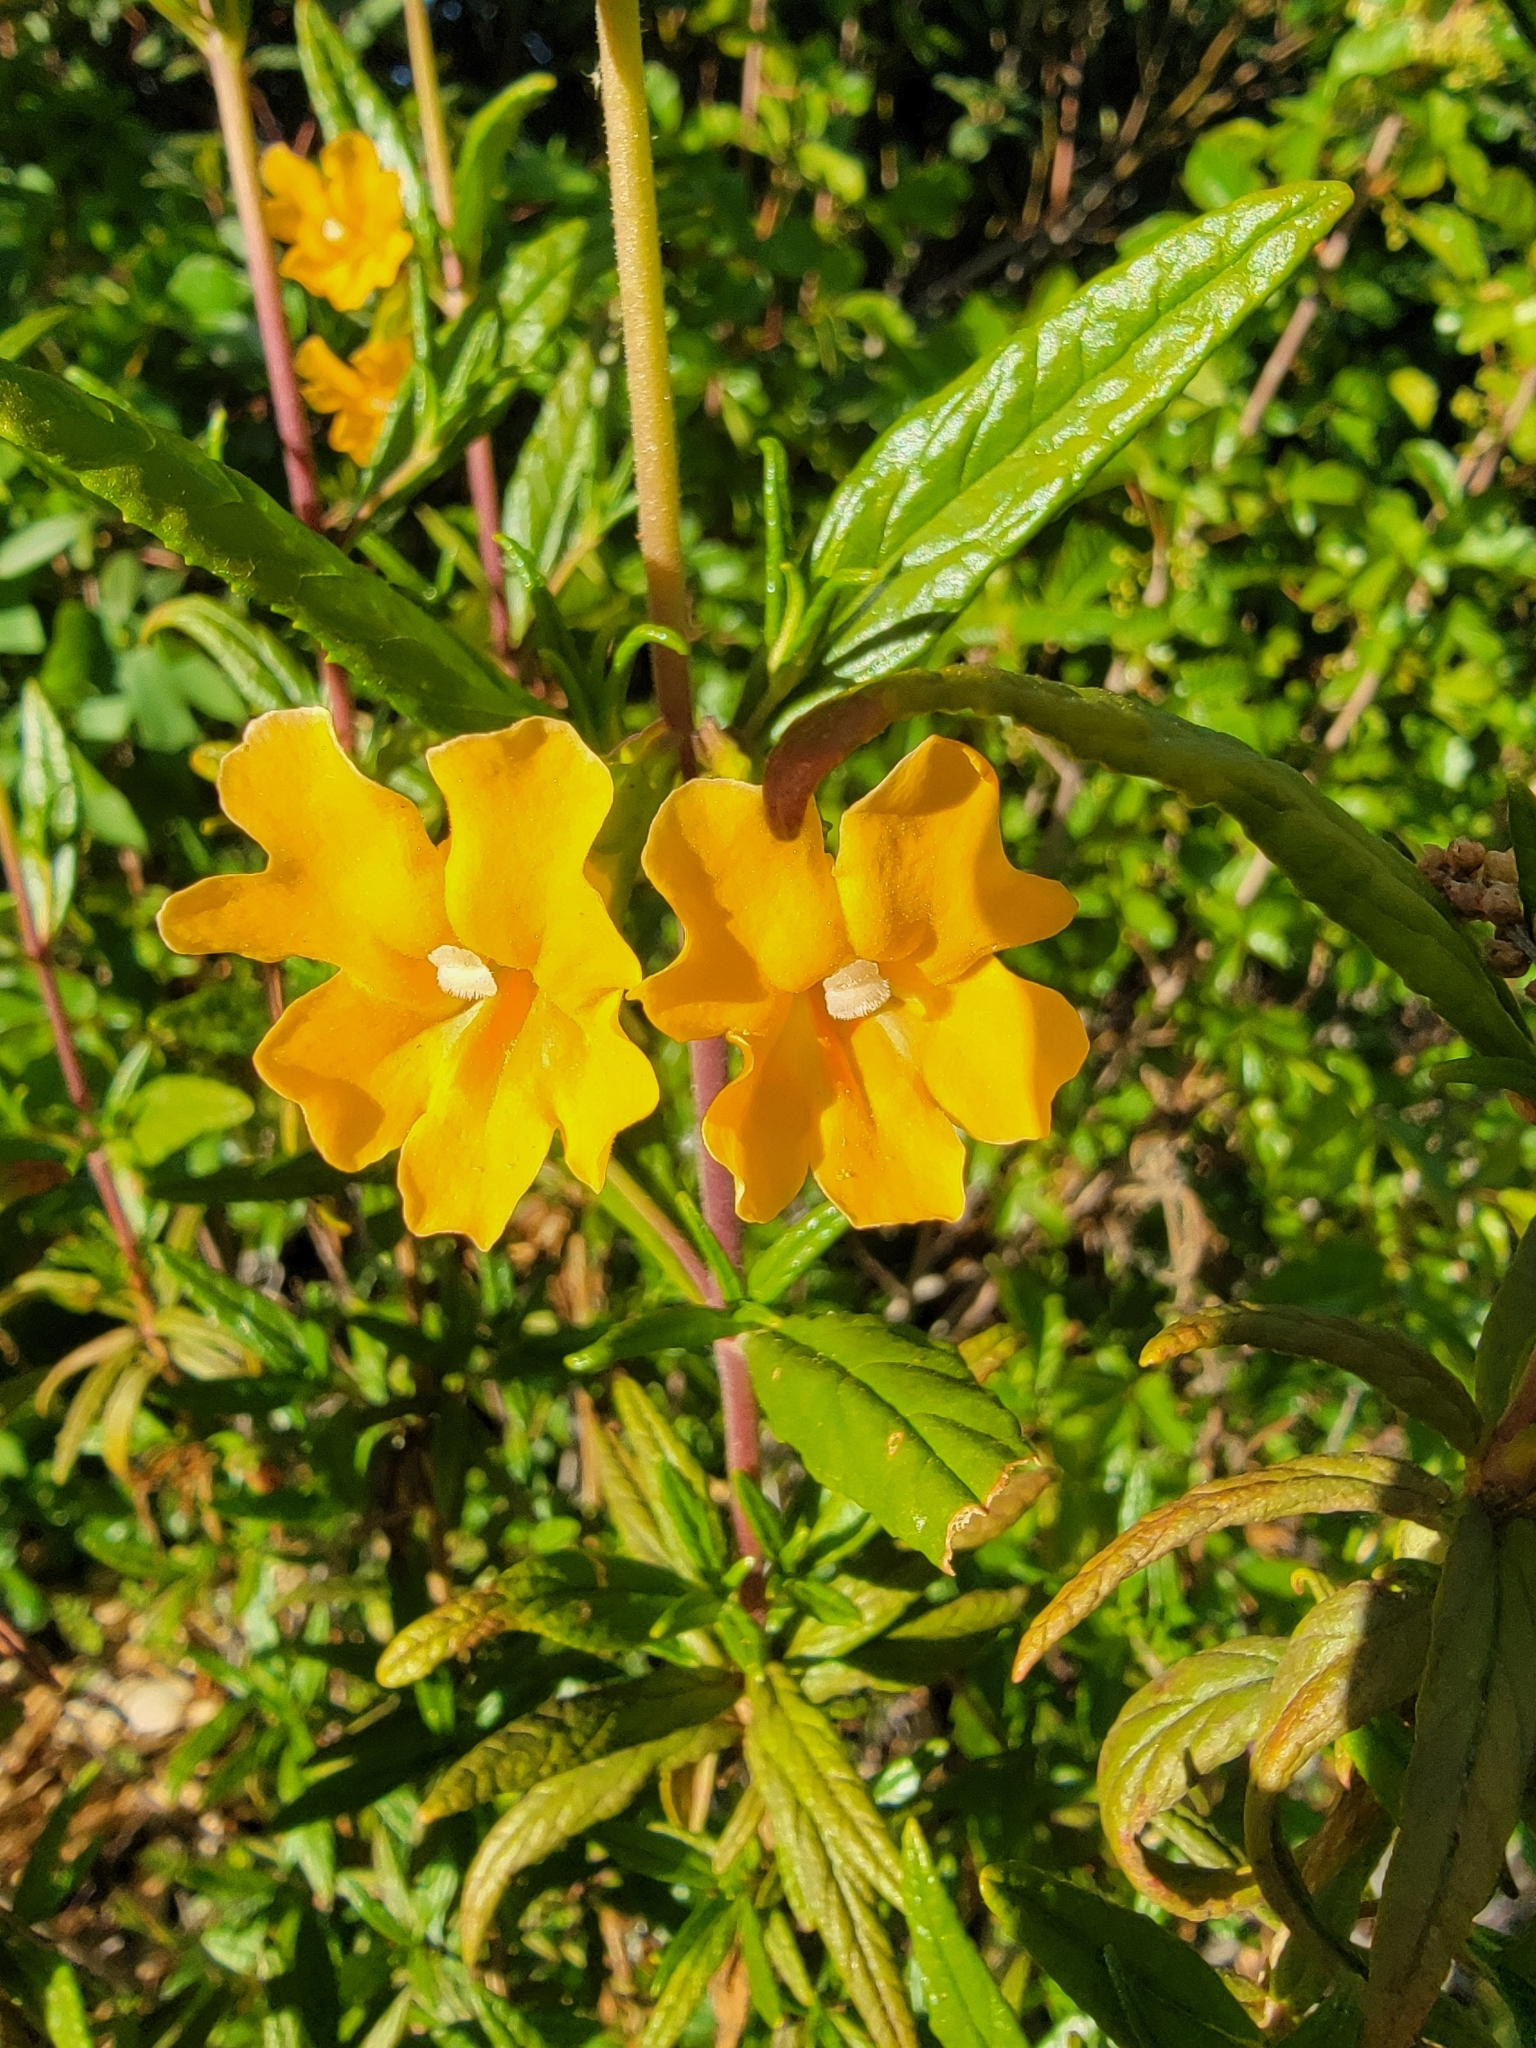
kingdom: Plantae
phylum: Tracheophyta
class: Magnoliopsida
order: Lamiales
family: Phrymaceae
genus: Diplacus
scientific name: Diplacus aurantiacus
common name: Bush monkey-flower
